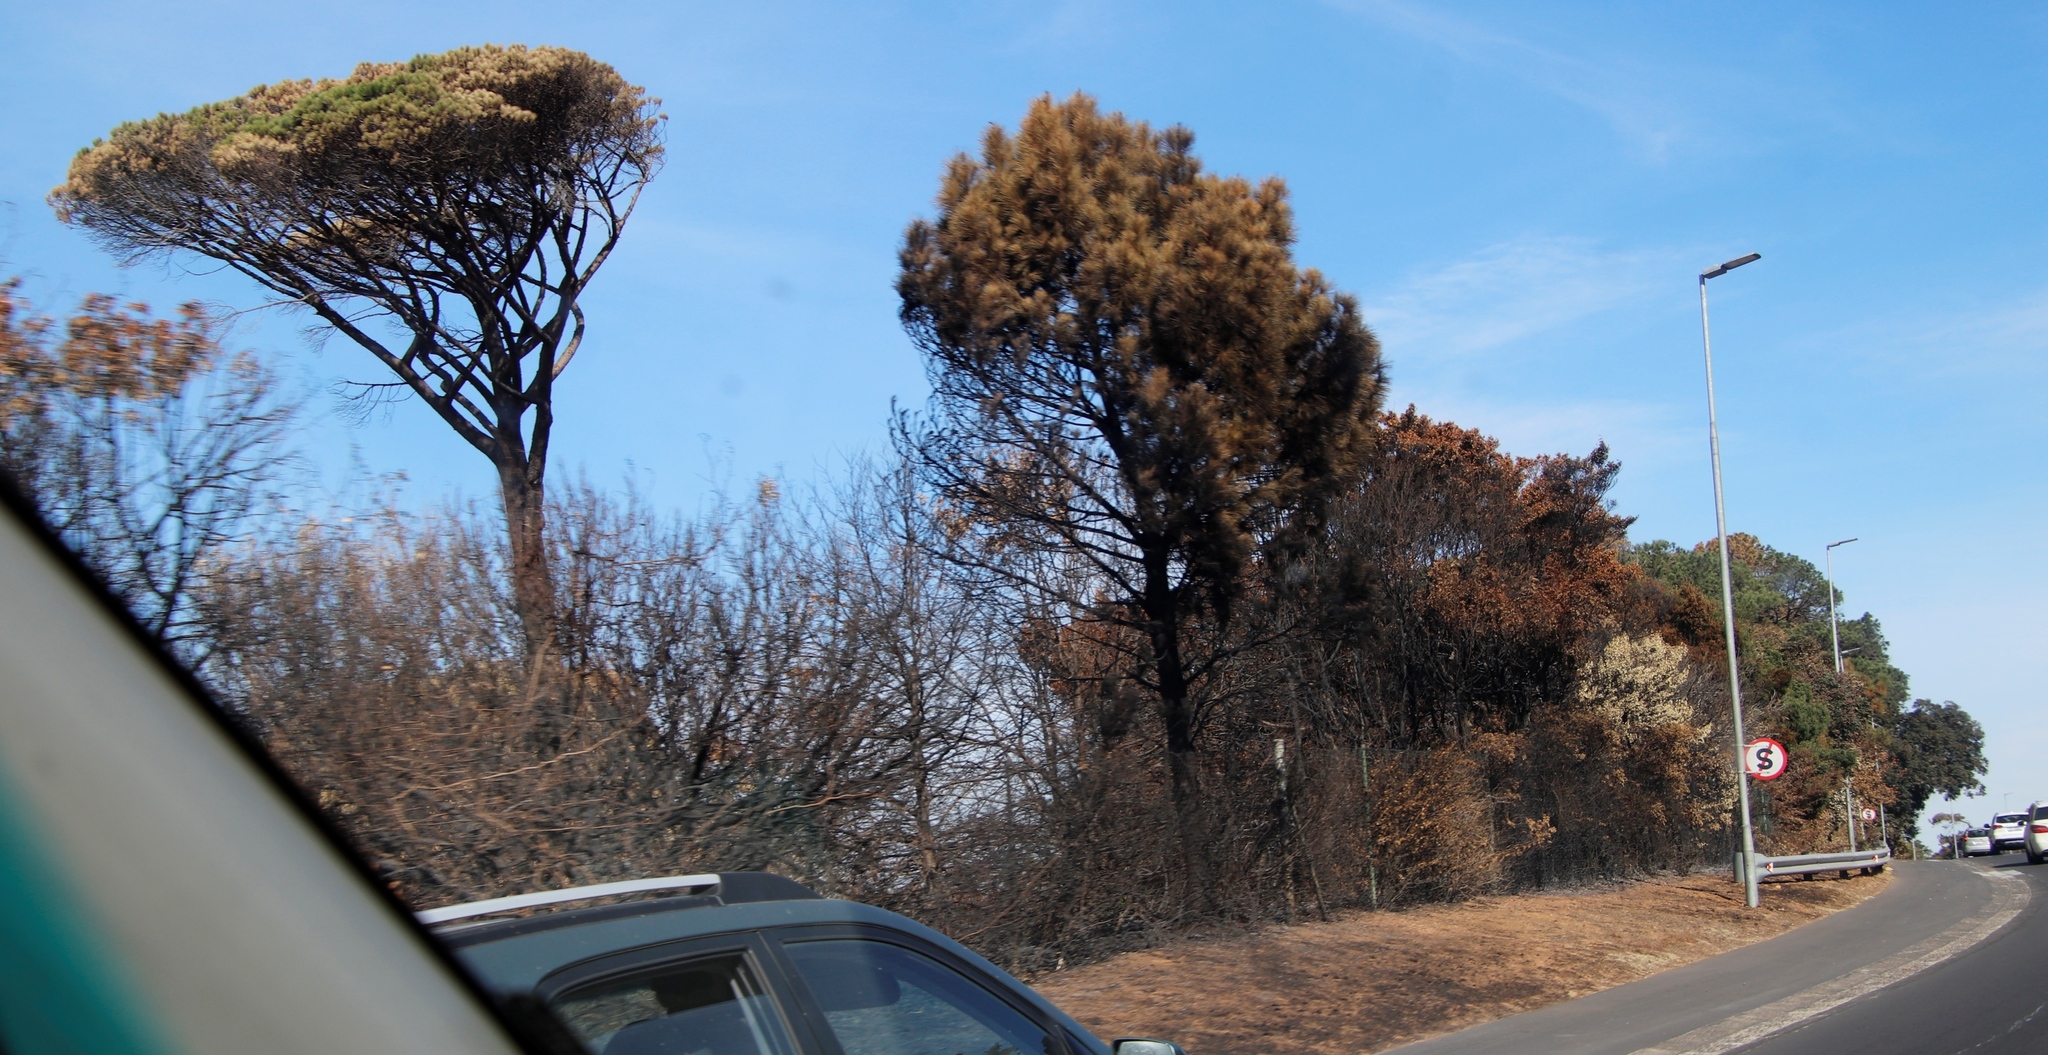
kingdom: Plantae
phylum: Tracheophyta
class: Pinopsida
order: Pinales
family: Pinaceae
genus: Pinus
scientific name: Pinus pinea
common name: Italian stone pine
